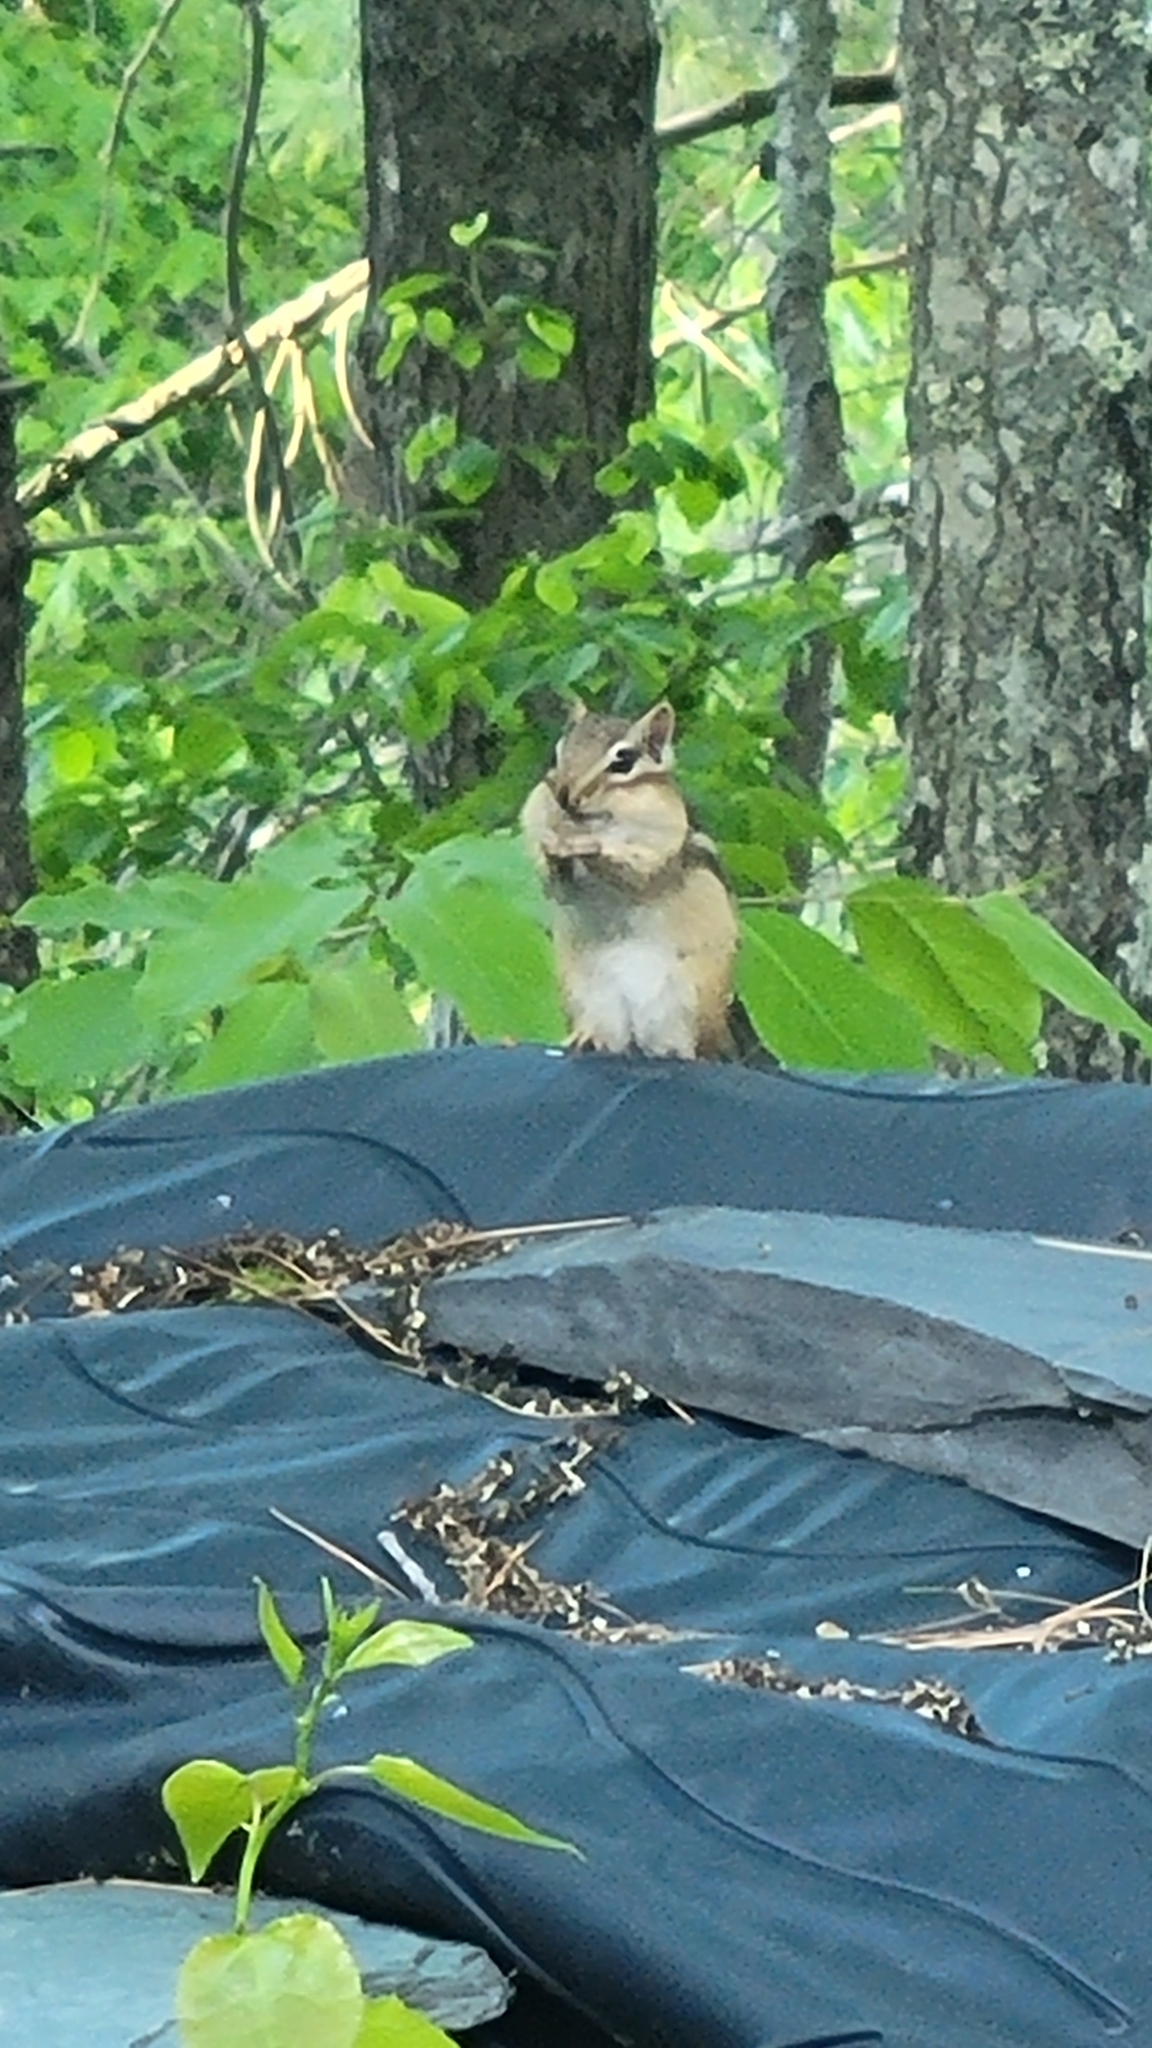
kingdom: Animalia
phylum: Chordata
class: Mammalia
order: Rodentia
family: Sciuridae
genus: Tamias
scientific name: Tamias striatus
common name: Eastern chipmunk
